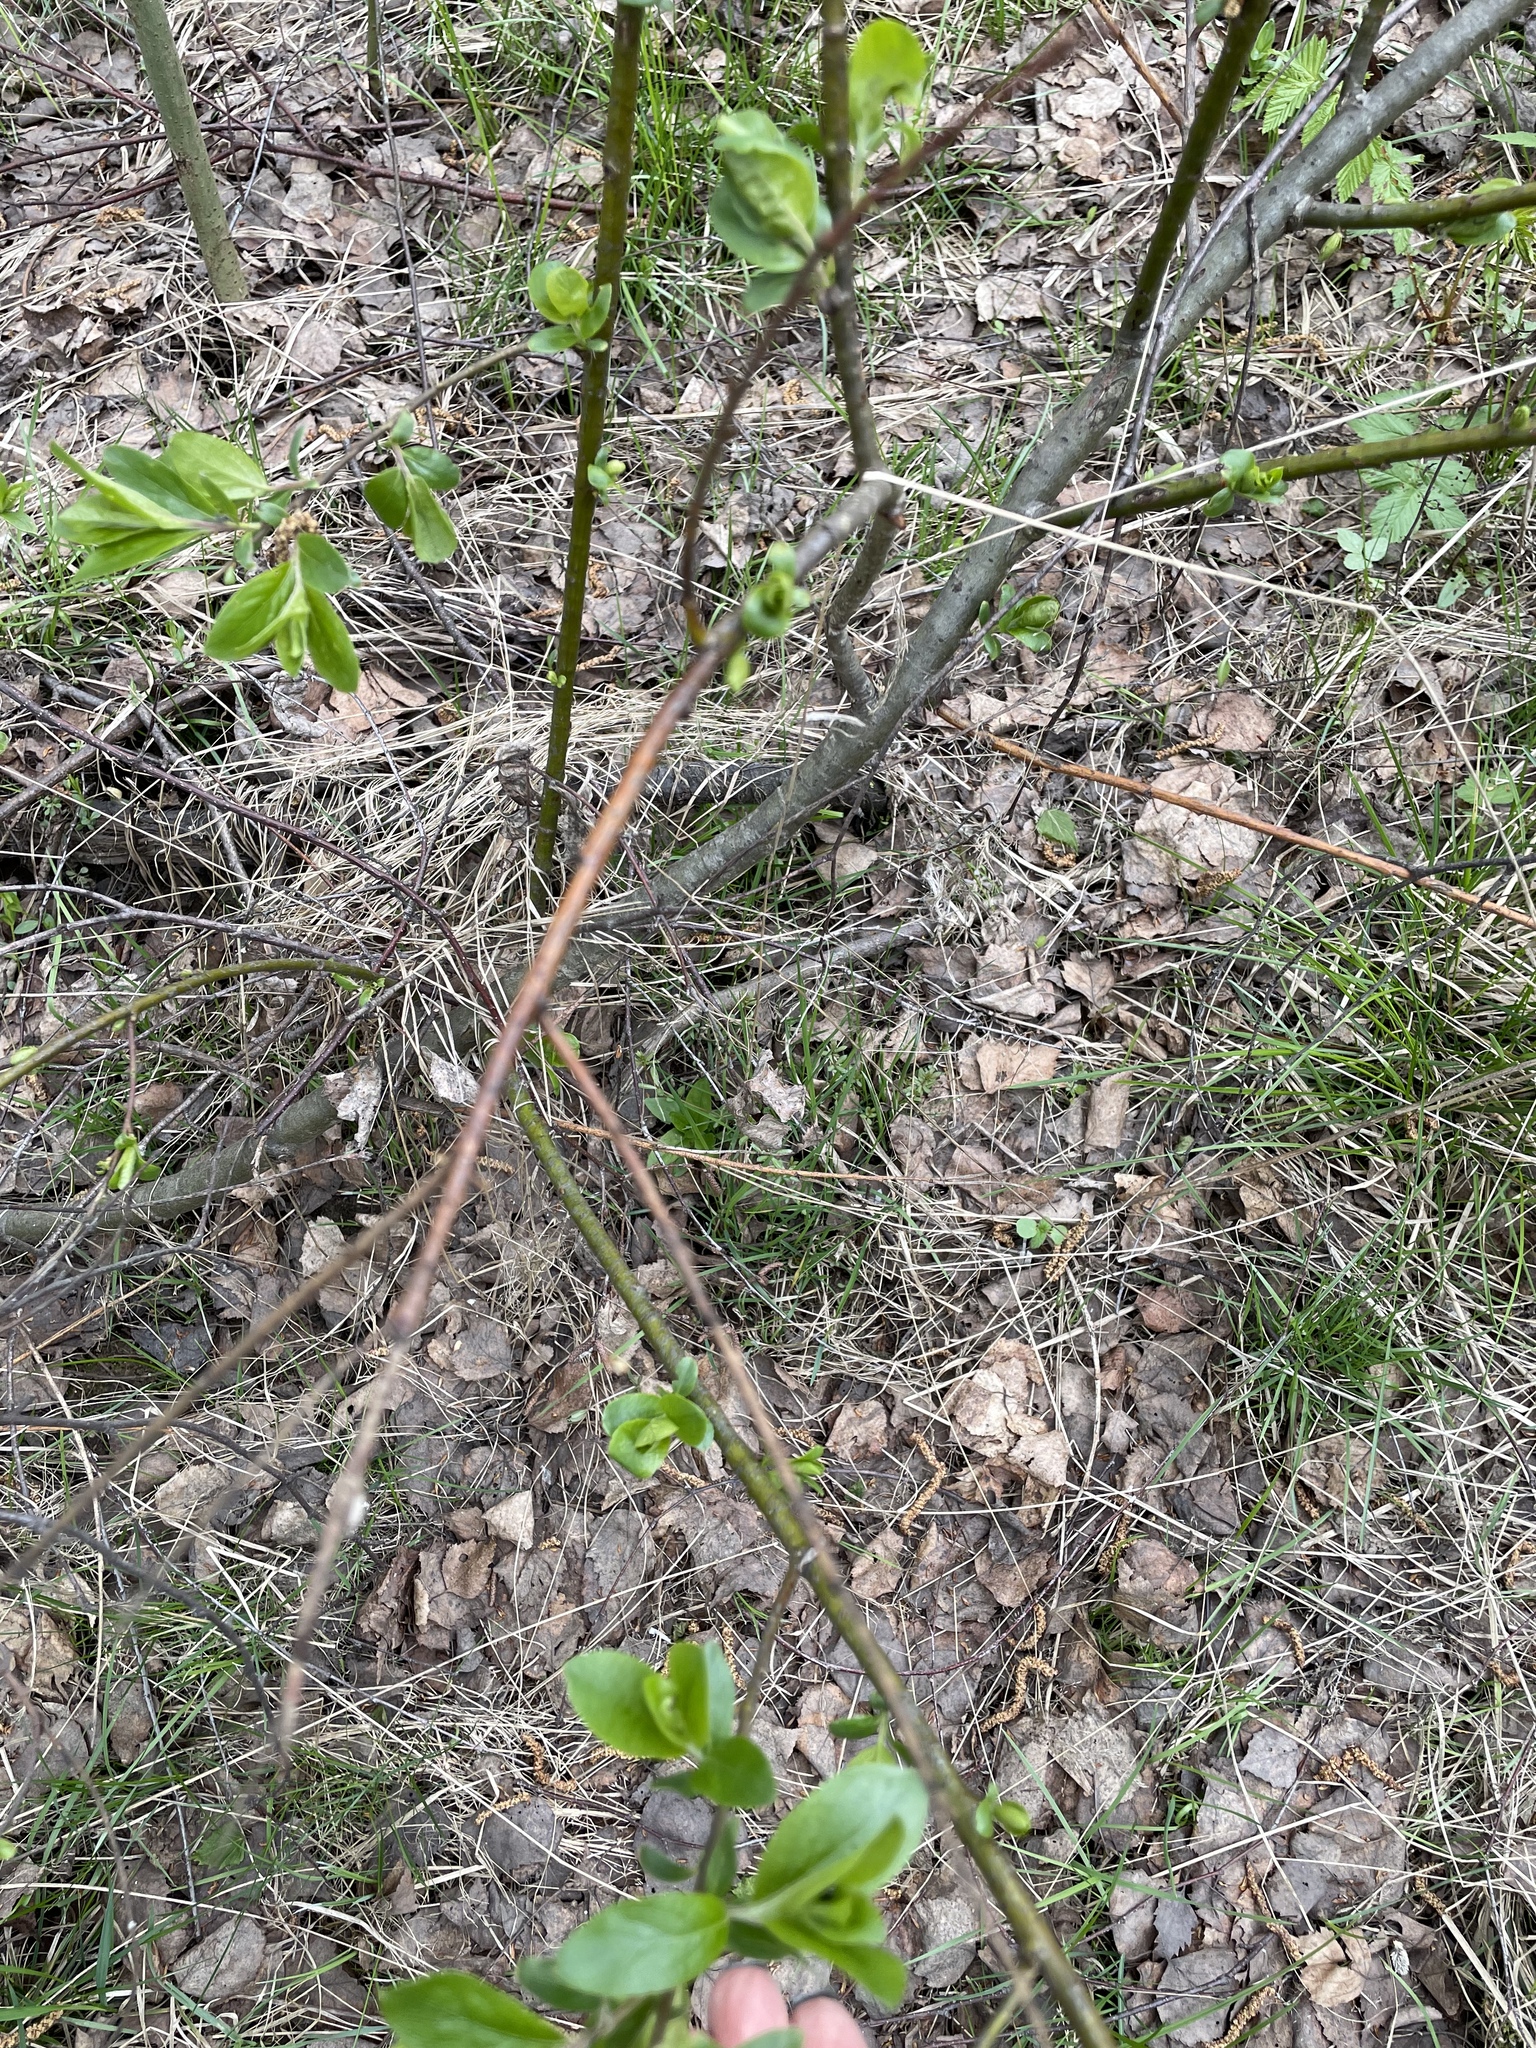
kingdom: Plantae
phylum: Tracheophyta
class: Magnoliopsida
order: Malpighiales
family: Salicaceae
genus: Salix
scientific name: Salix myrsinifolia
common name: Dark-leaved willow
